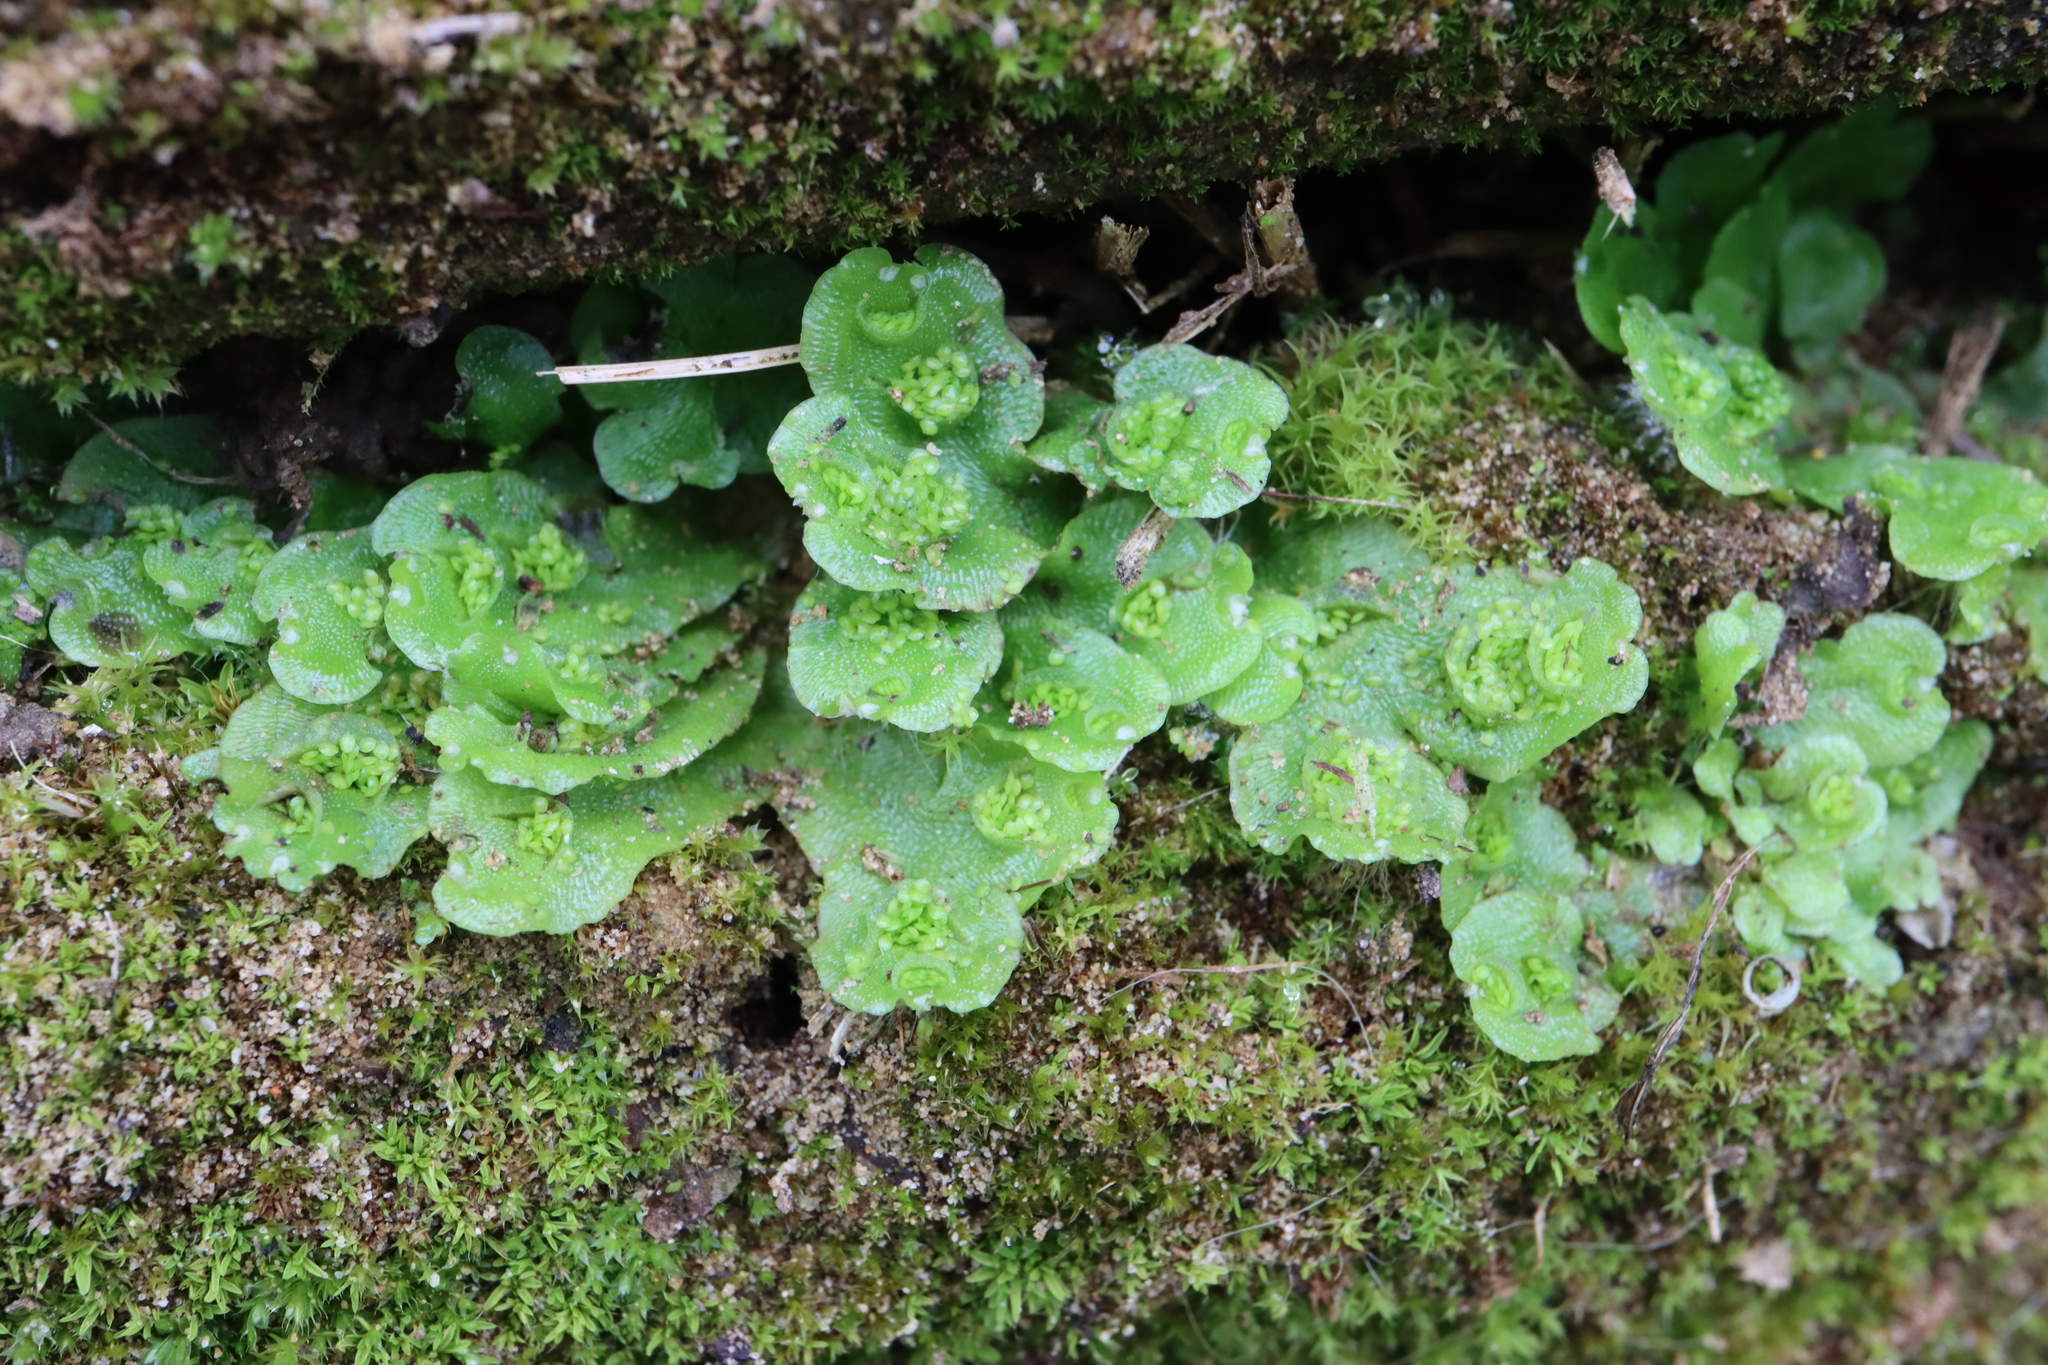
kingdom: Plantae
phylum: Marchantiophyta
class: Marchantiopsida
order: Lunulariales
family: Lunulariaceae
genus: Lunularia
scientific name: Lunularia cruciata
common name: Crescent-cup liverwort
